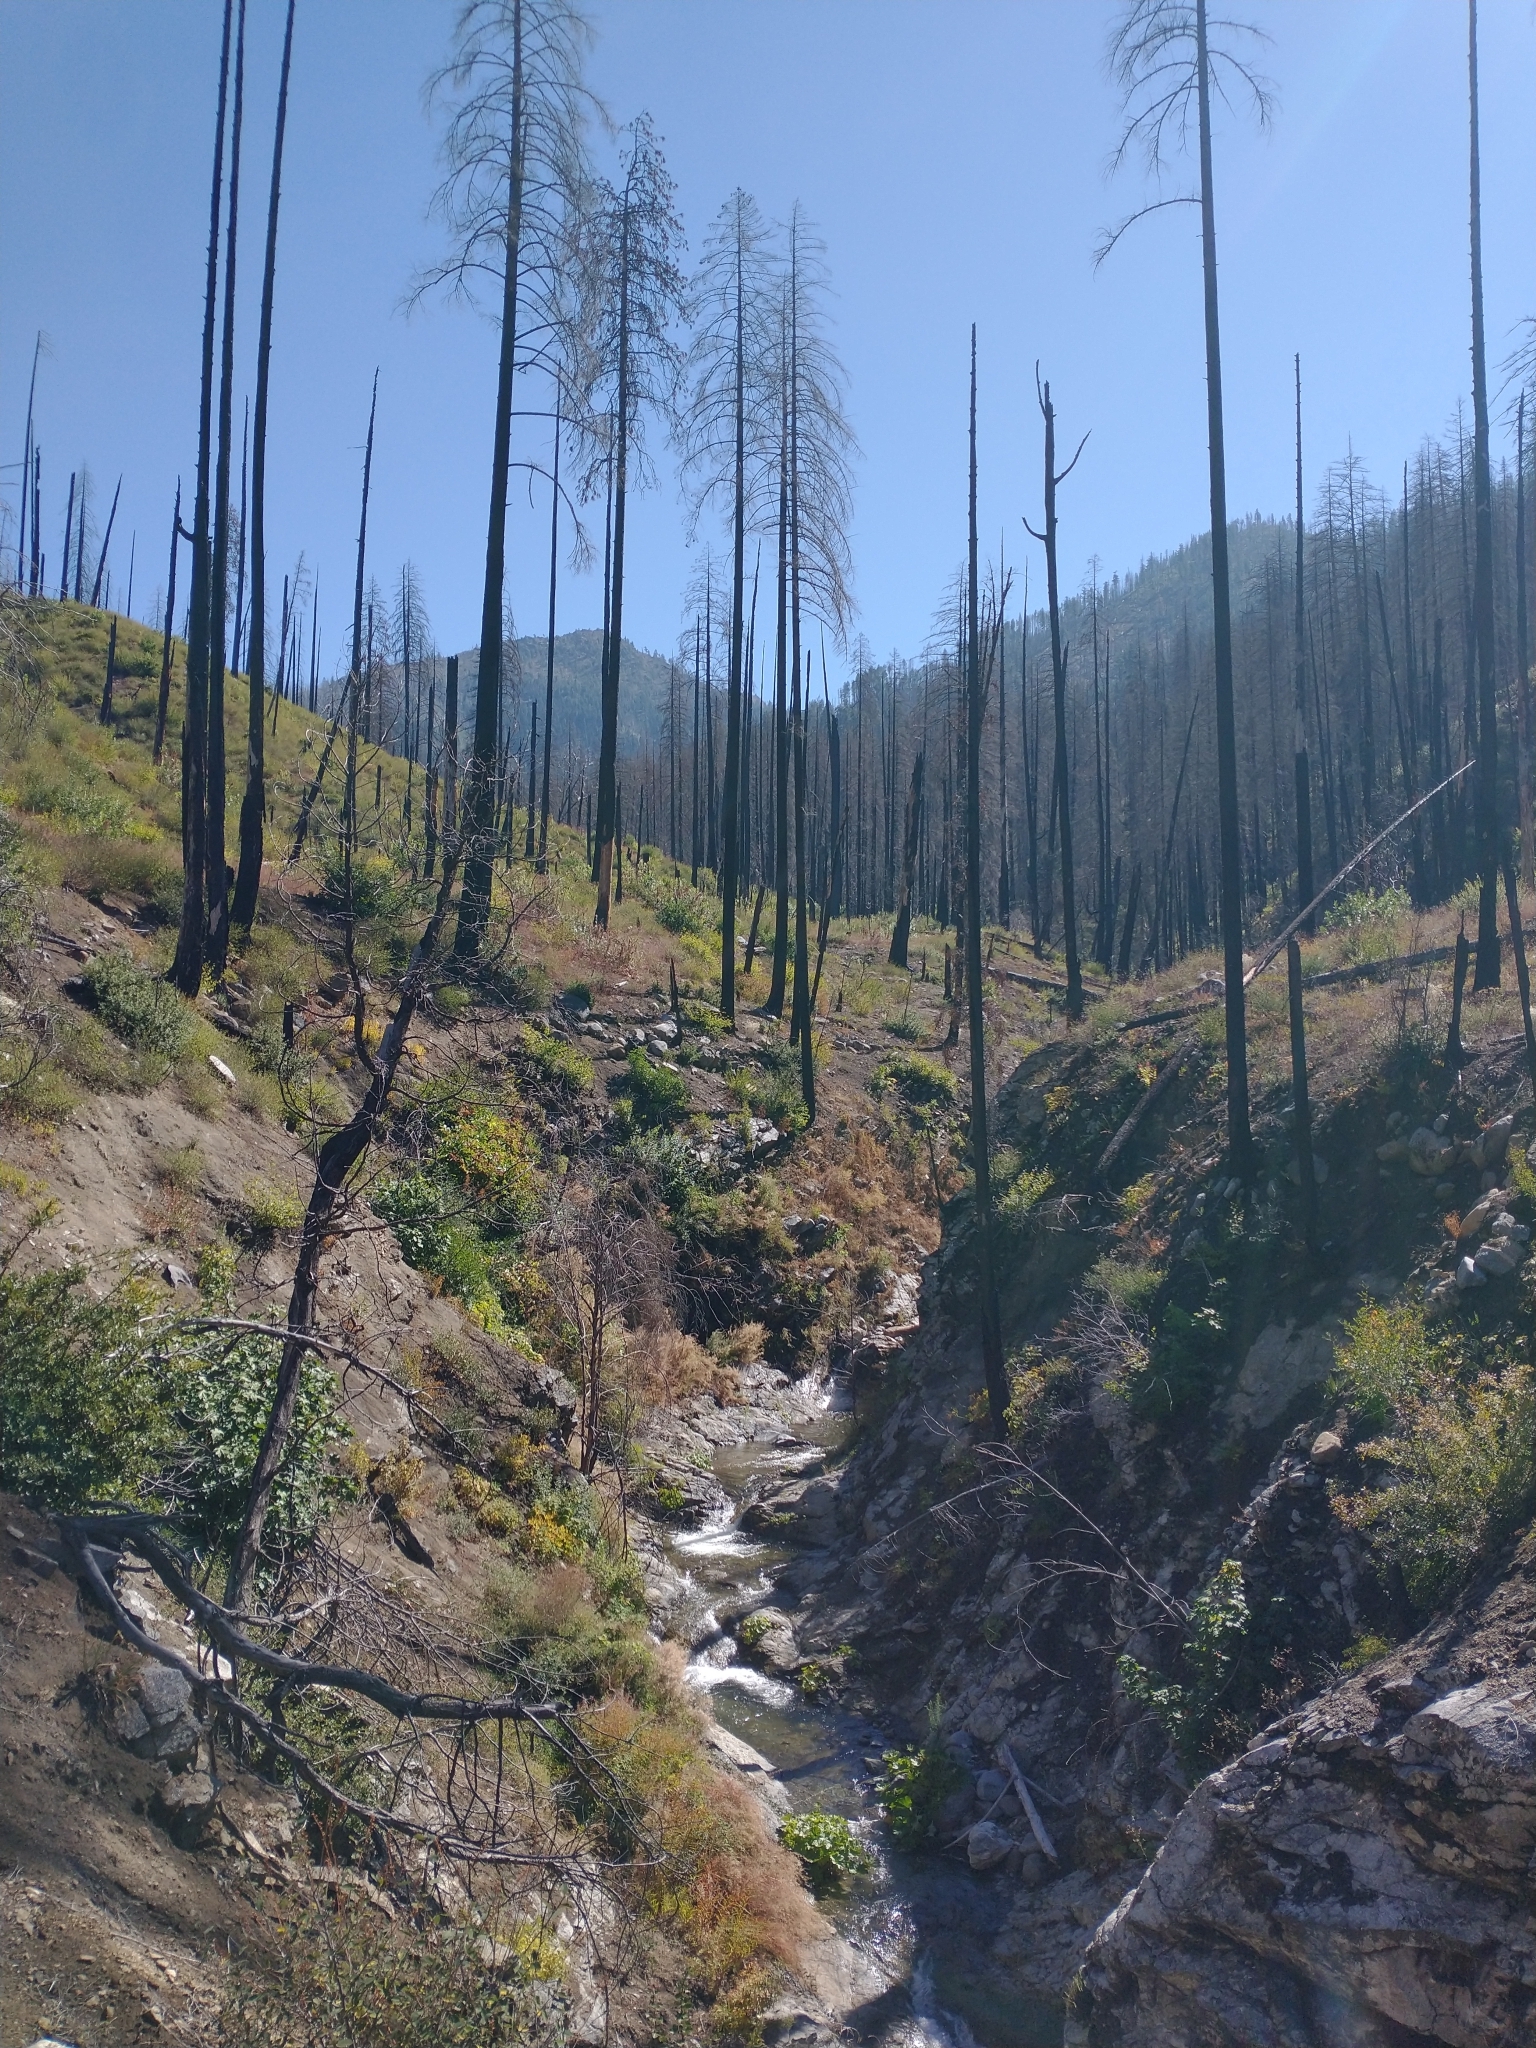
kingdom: Plantae
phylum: Tracheophyta
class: Magnoliopsida
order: Saxifragales
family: Saxifragaceae
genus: Darmera
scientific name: Darmera peltata
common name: Indian-rhubarb
